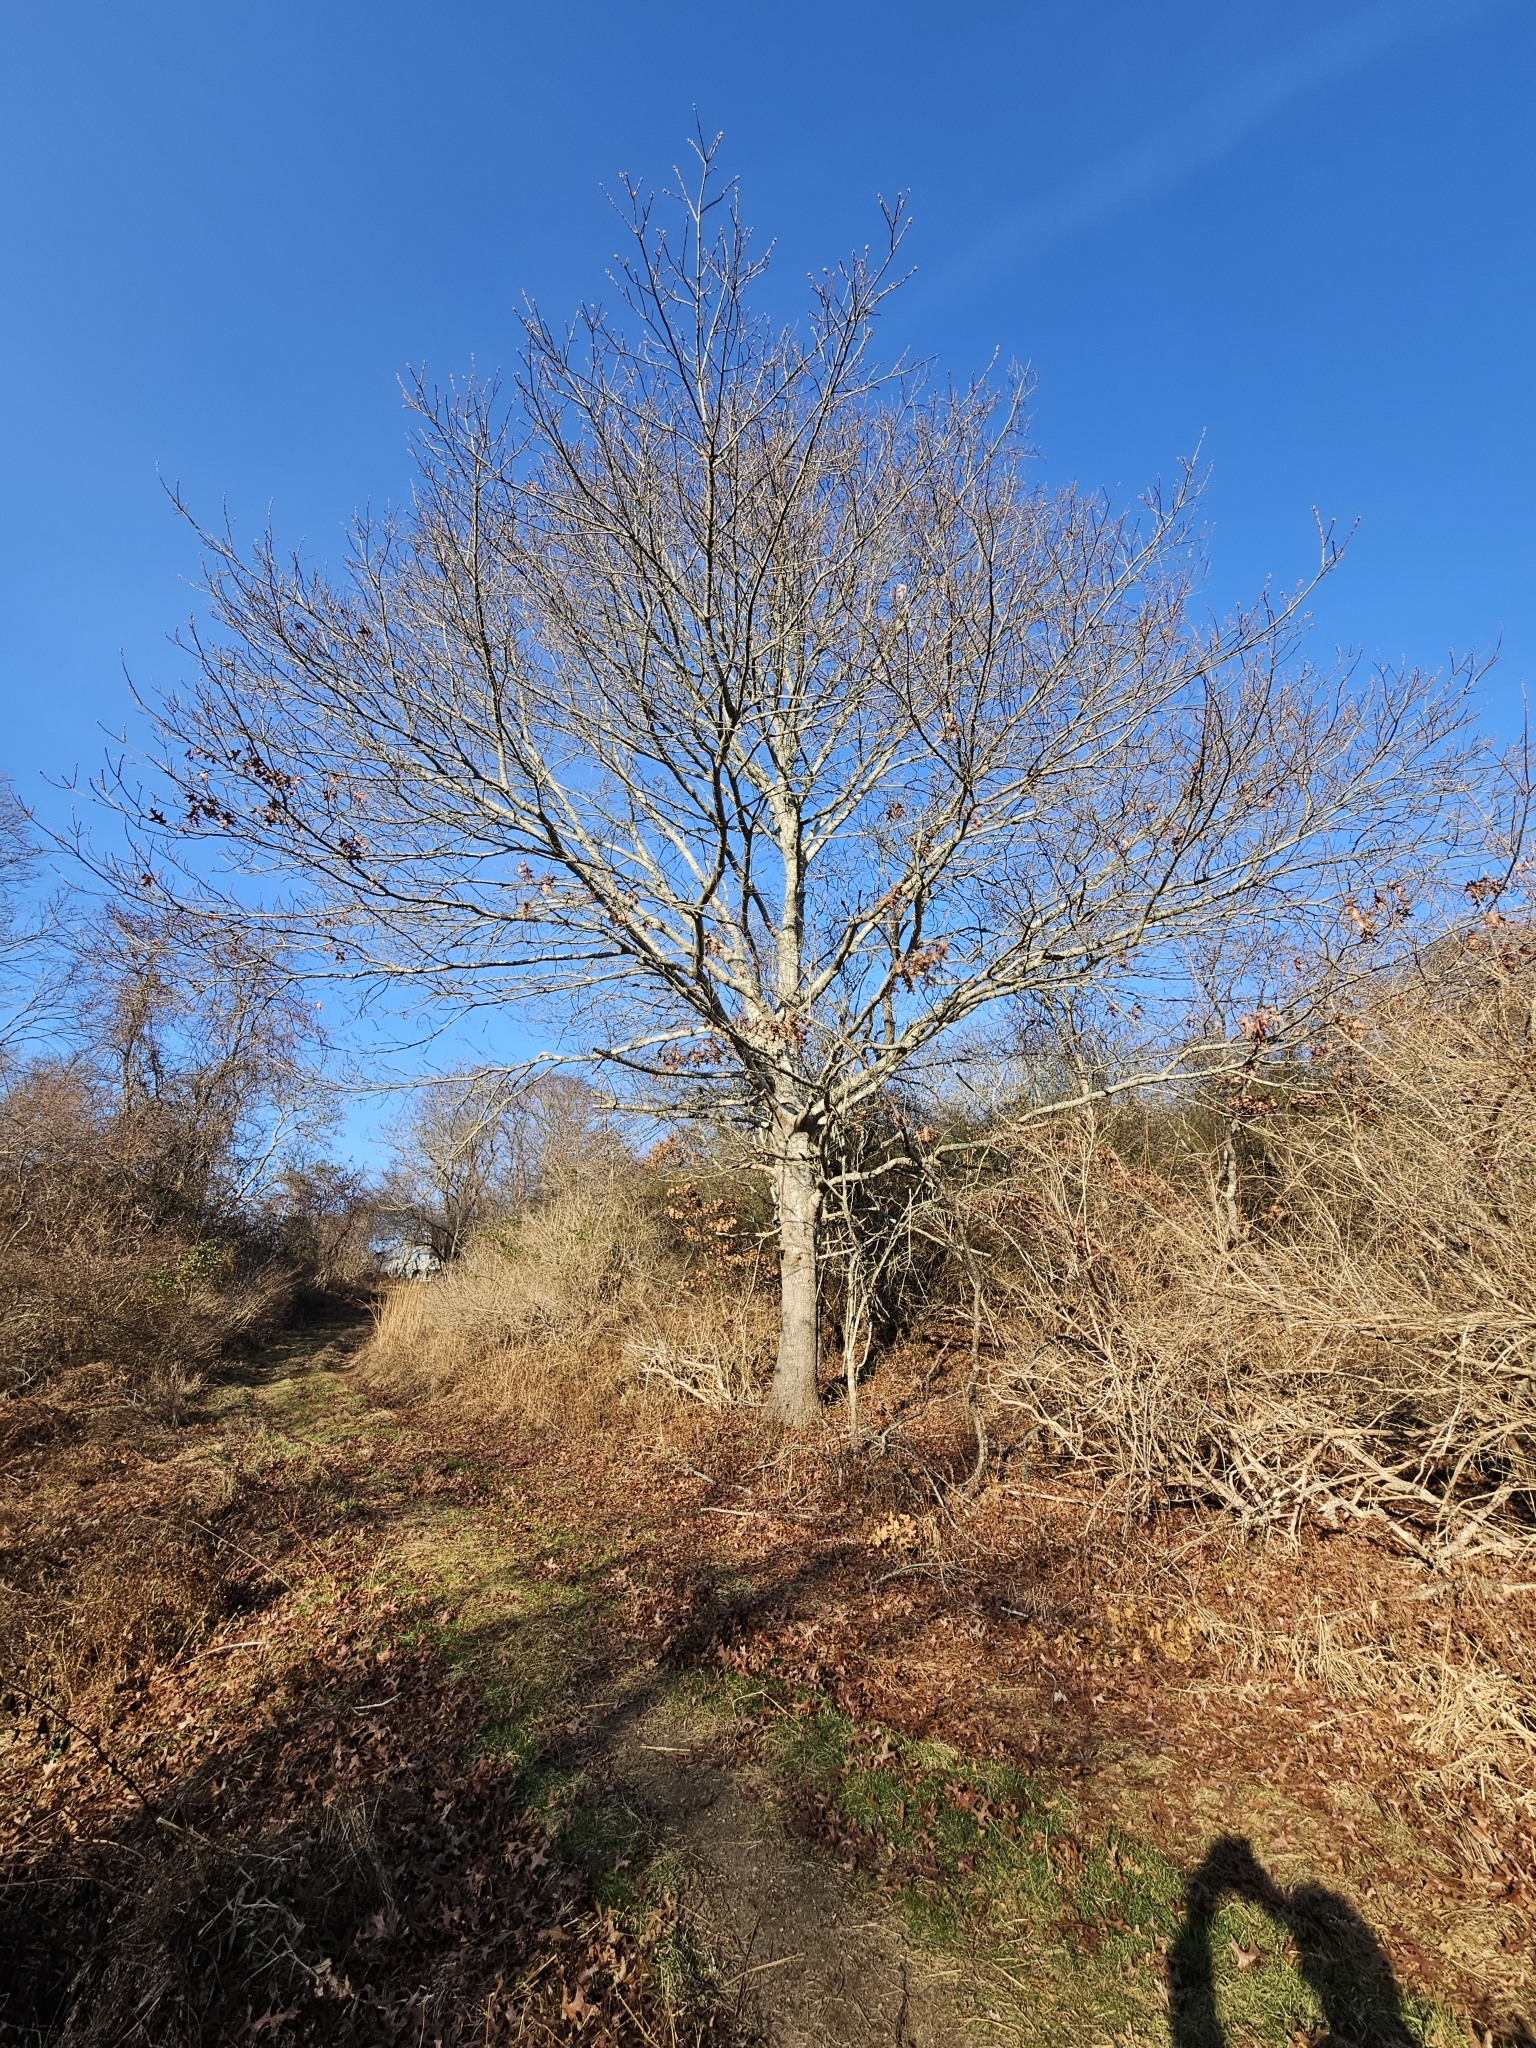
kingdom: Plantae
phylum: Tracheophyta
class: Magnoliopsida
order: Fagales
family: Fagaceae
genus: Quercus
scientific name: Quercus coccinea
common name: Scarlet oak
